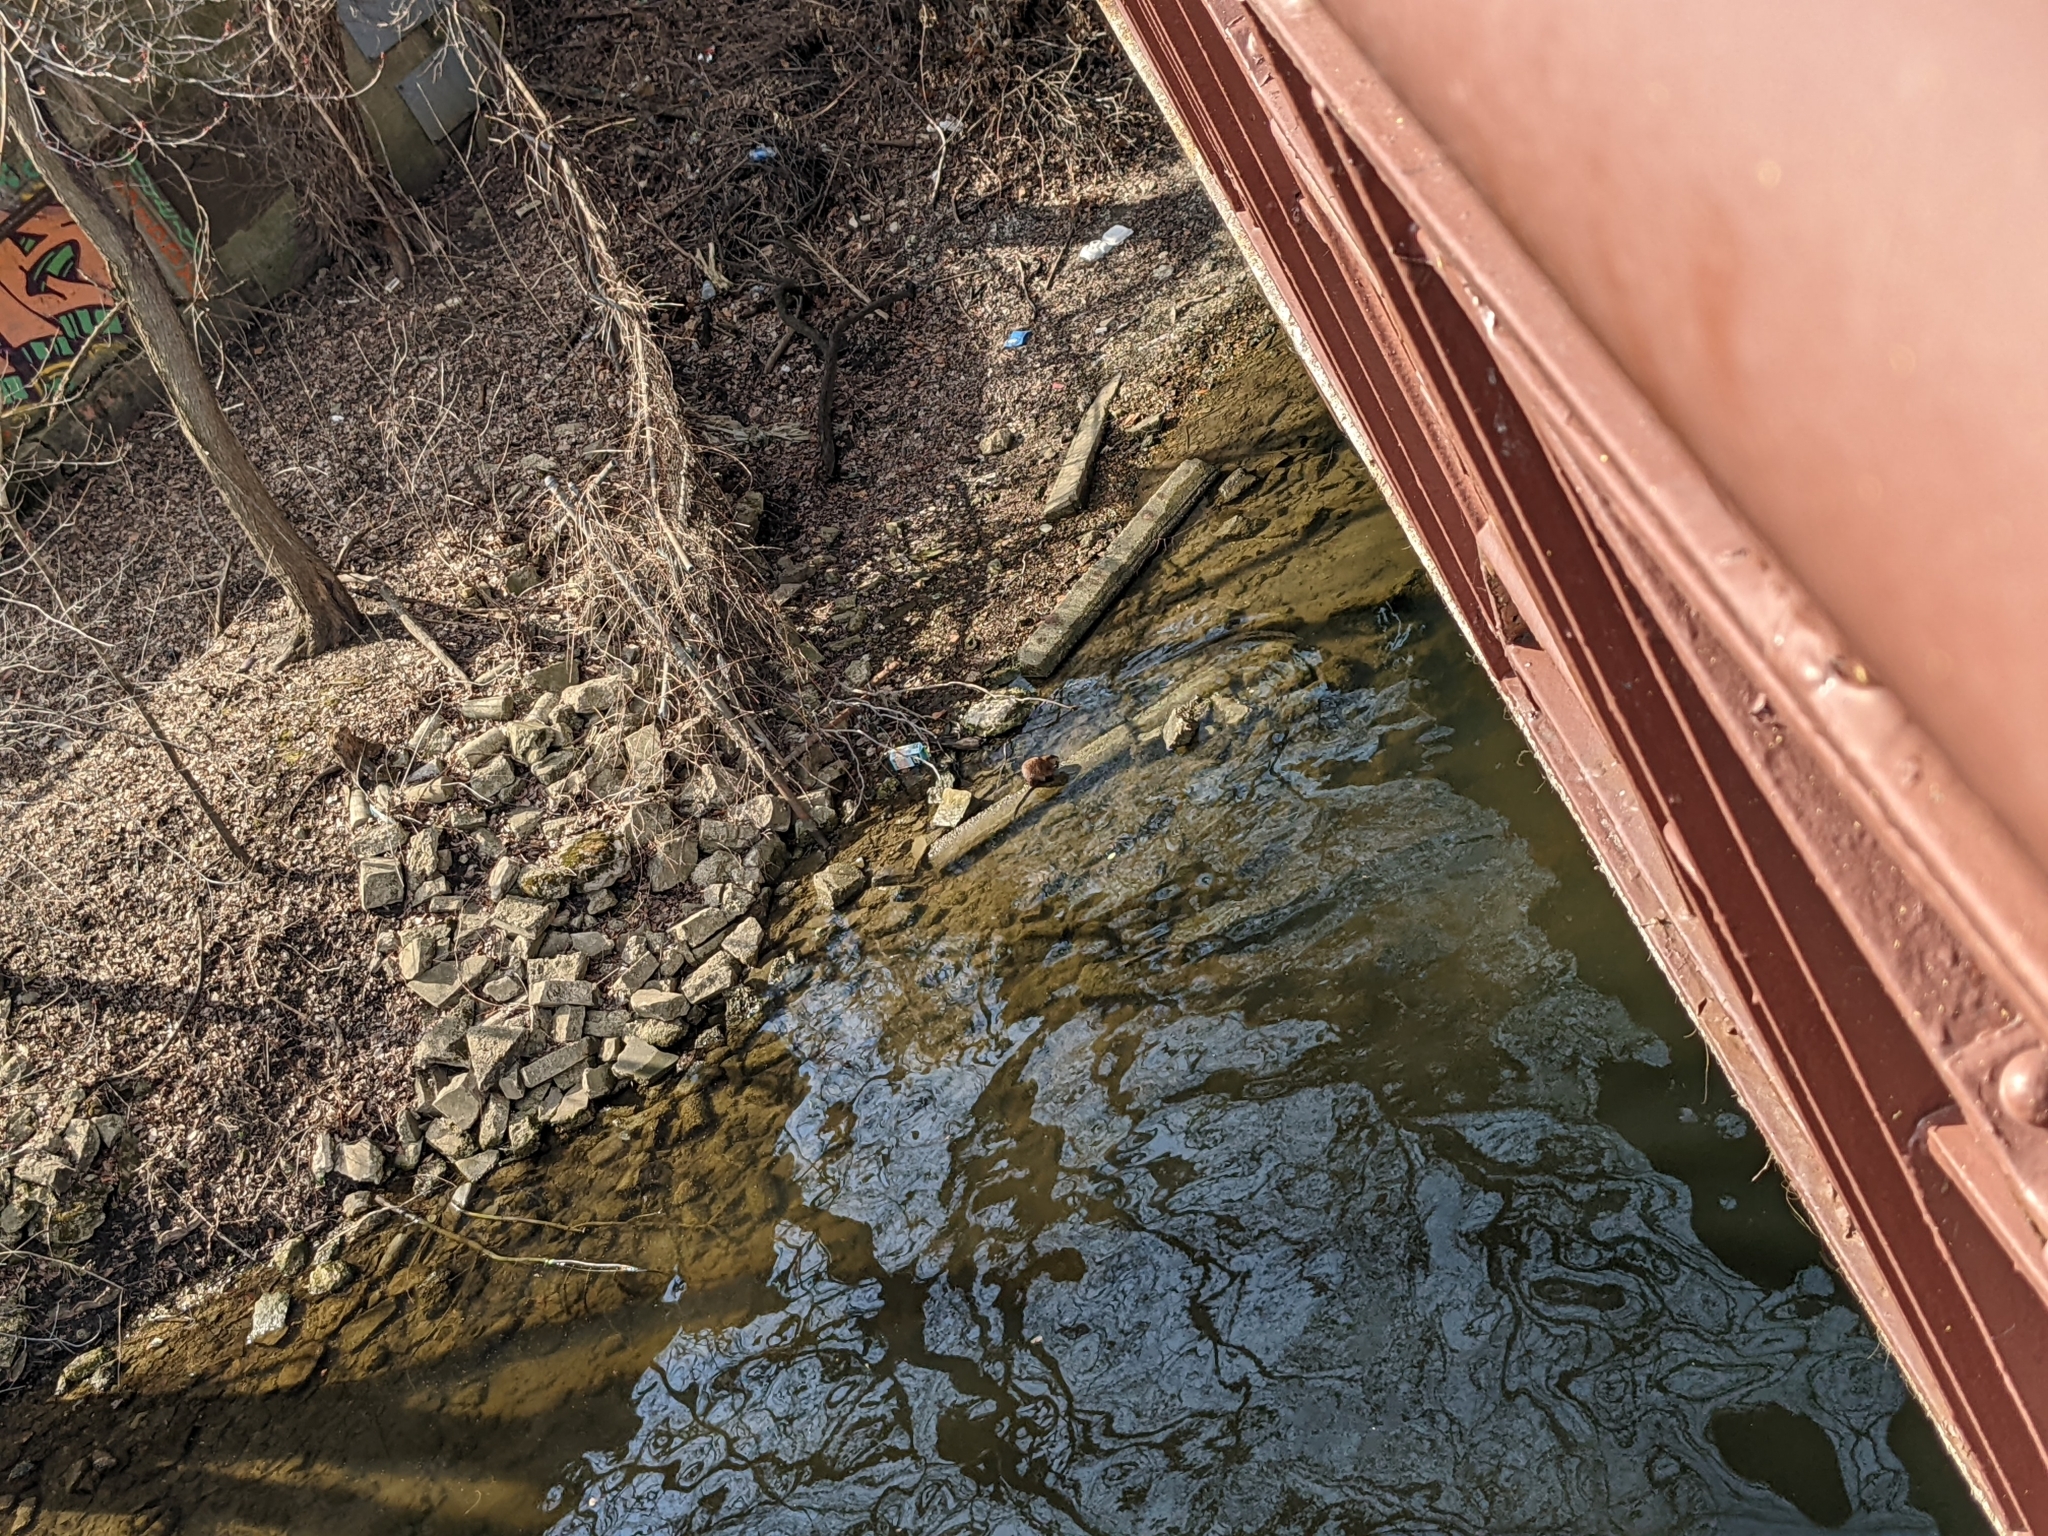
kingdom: Animalia
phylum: Chordata
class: Mammalia
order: Rodentia
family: Cricetidae
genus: Ondatra
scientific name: Ondatra zibethicus
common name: Muskrat
